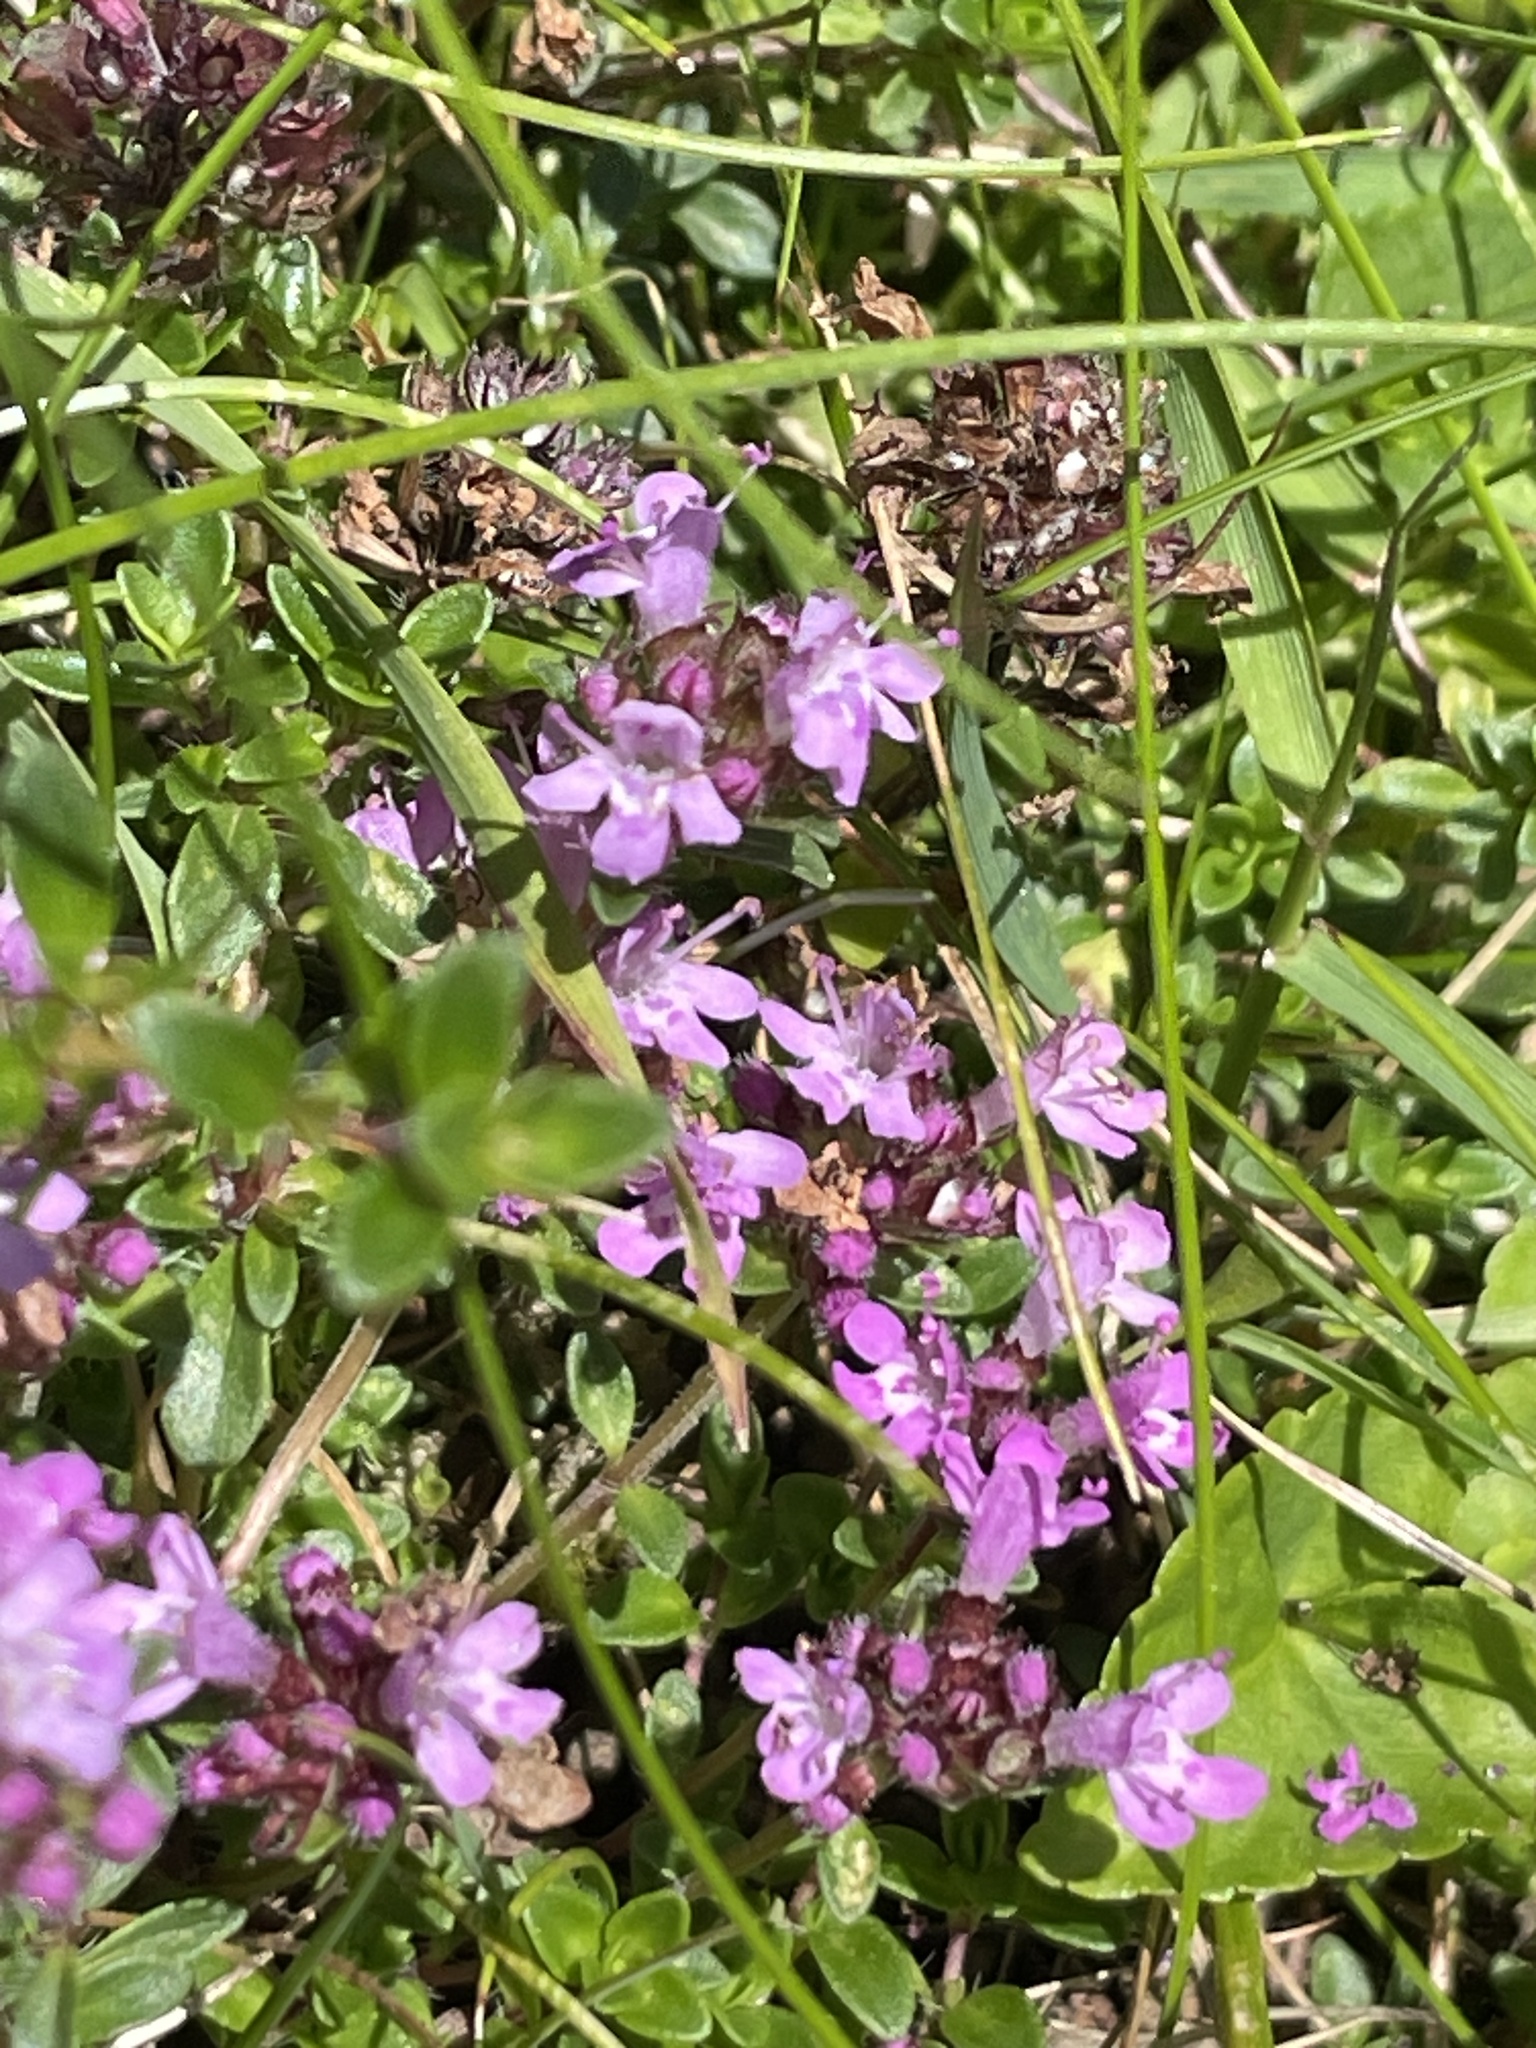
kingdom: Plantae
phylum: Tracheophyta
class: Magnoliopsida
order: Lamiales
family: Lamiaceae
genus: Thymus
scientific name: Thymus praecox
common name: Wild thyme
